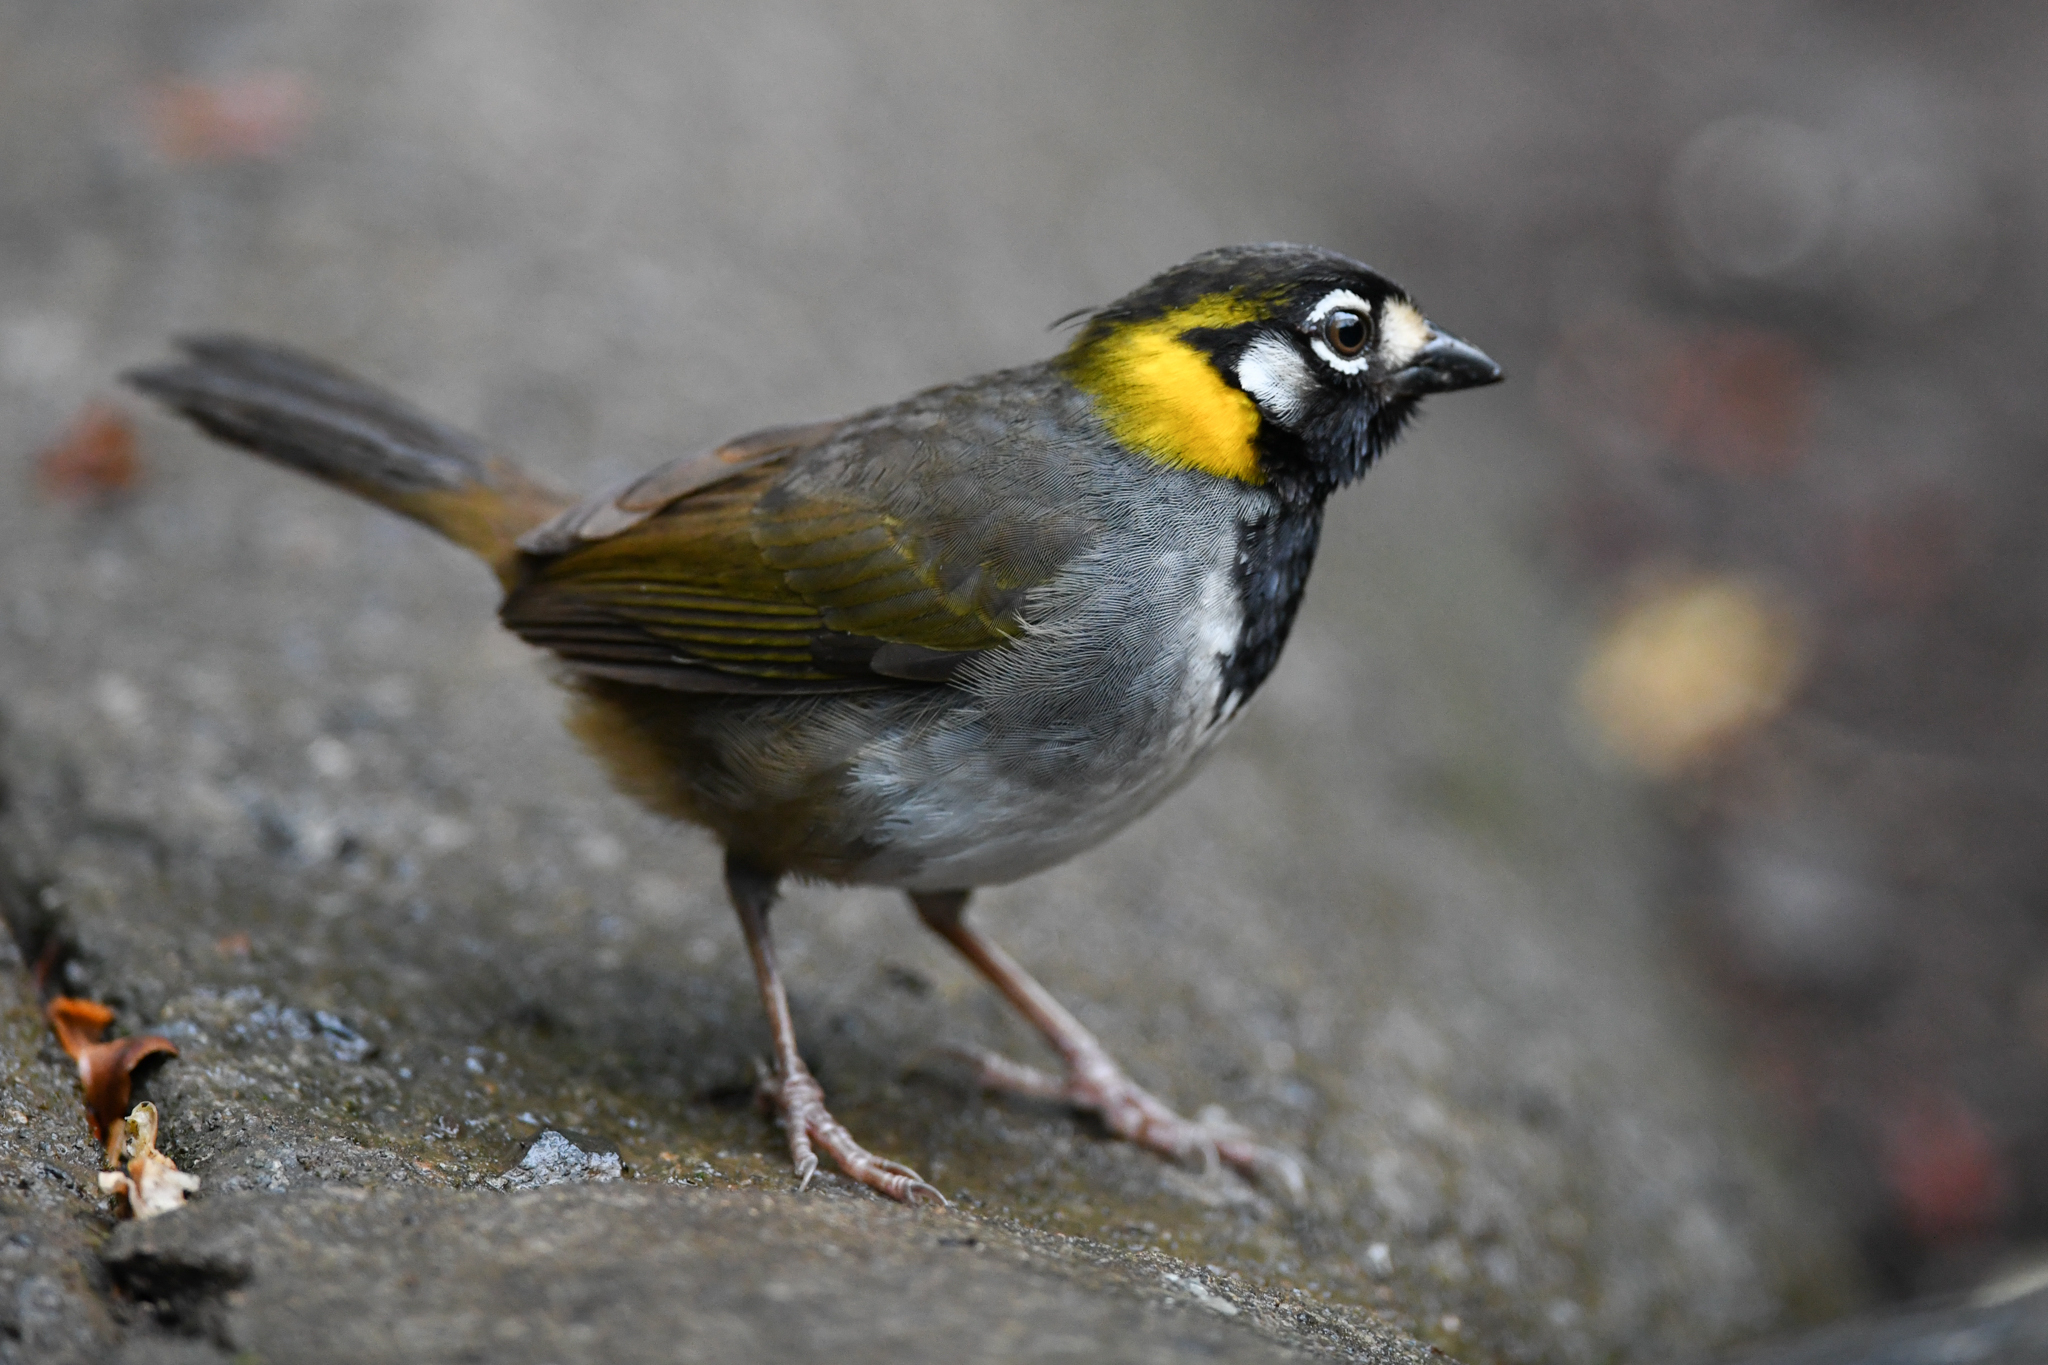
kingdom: Animalia
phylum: Chordata
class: Aves
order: Passeriformes
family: Passerellidae
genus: Melozone
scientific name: Melozone leucotis
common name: White-eared ground-sparrow
